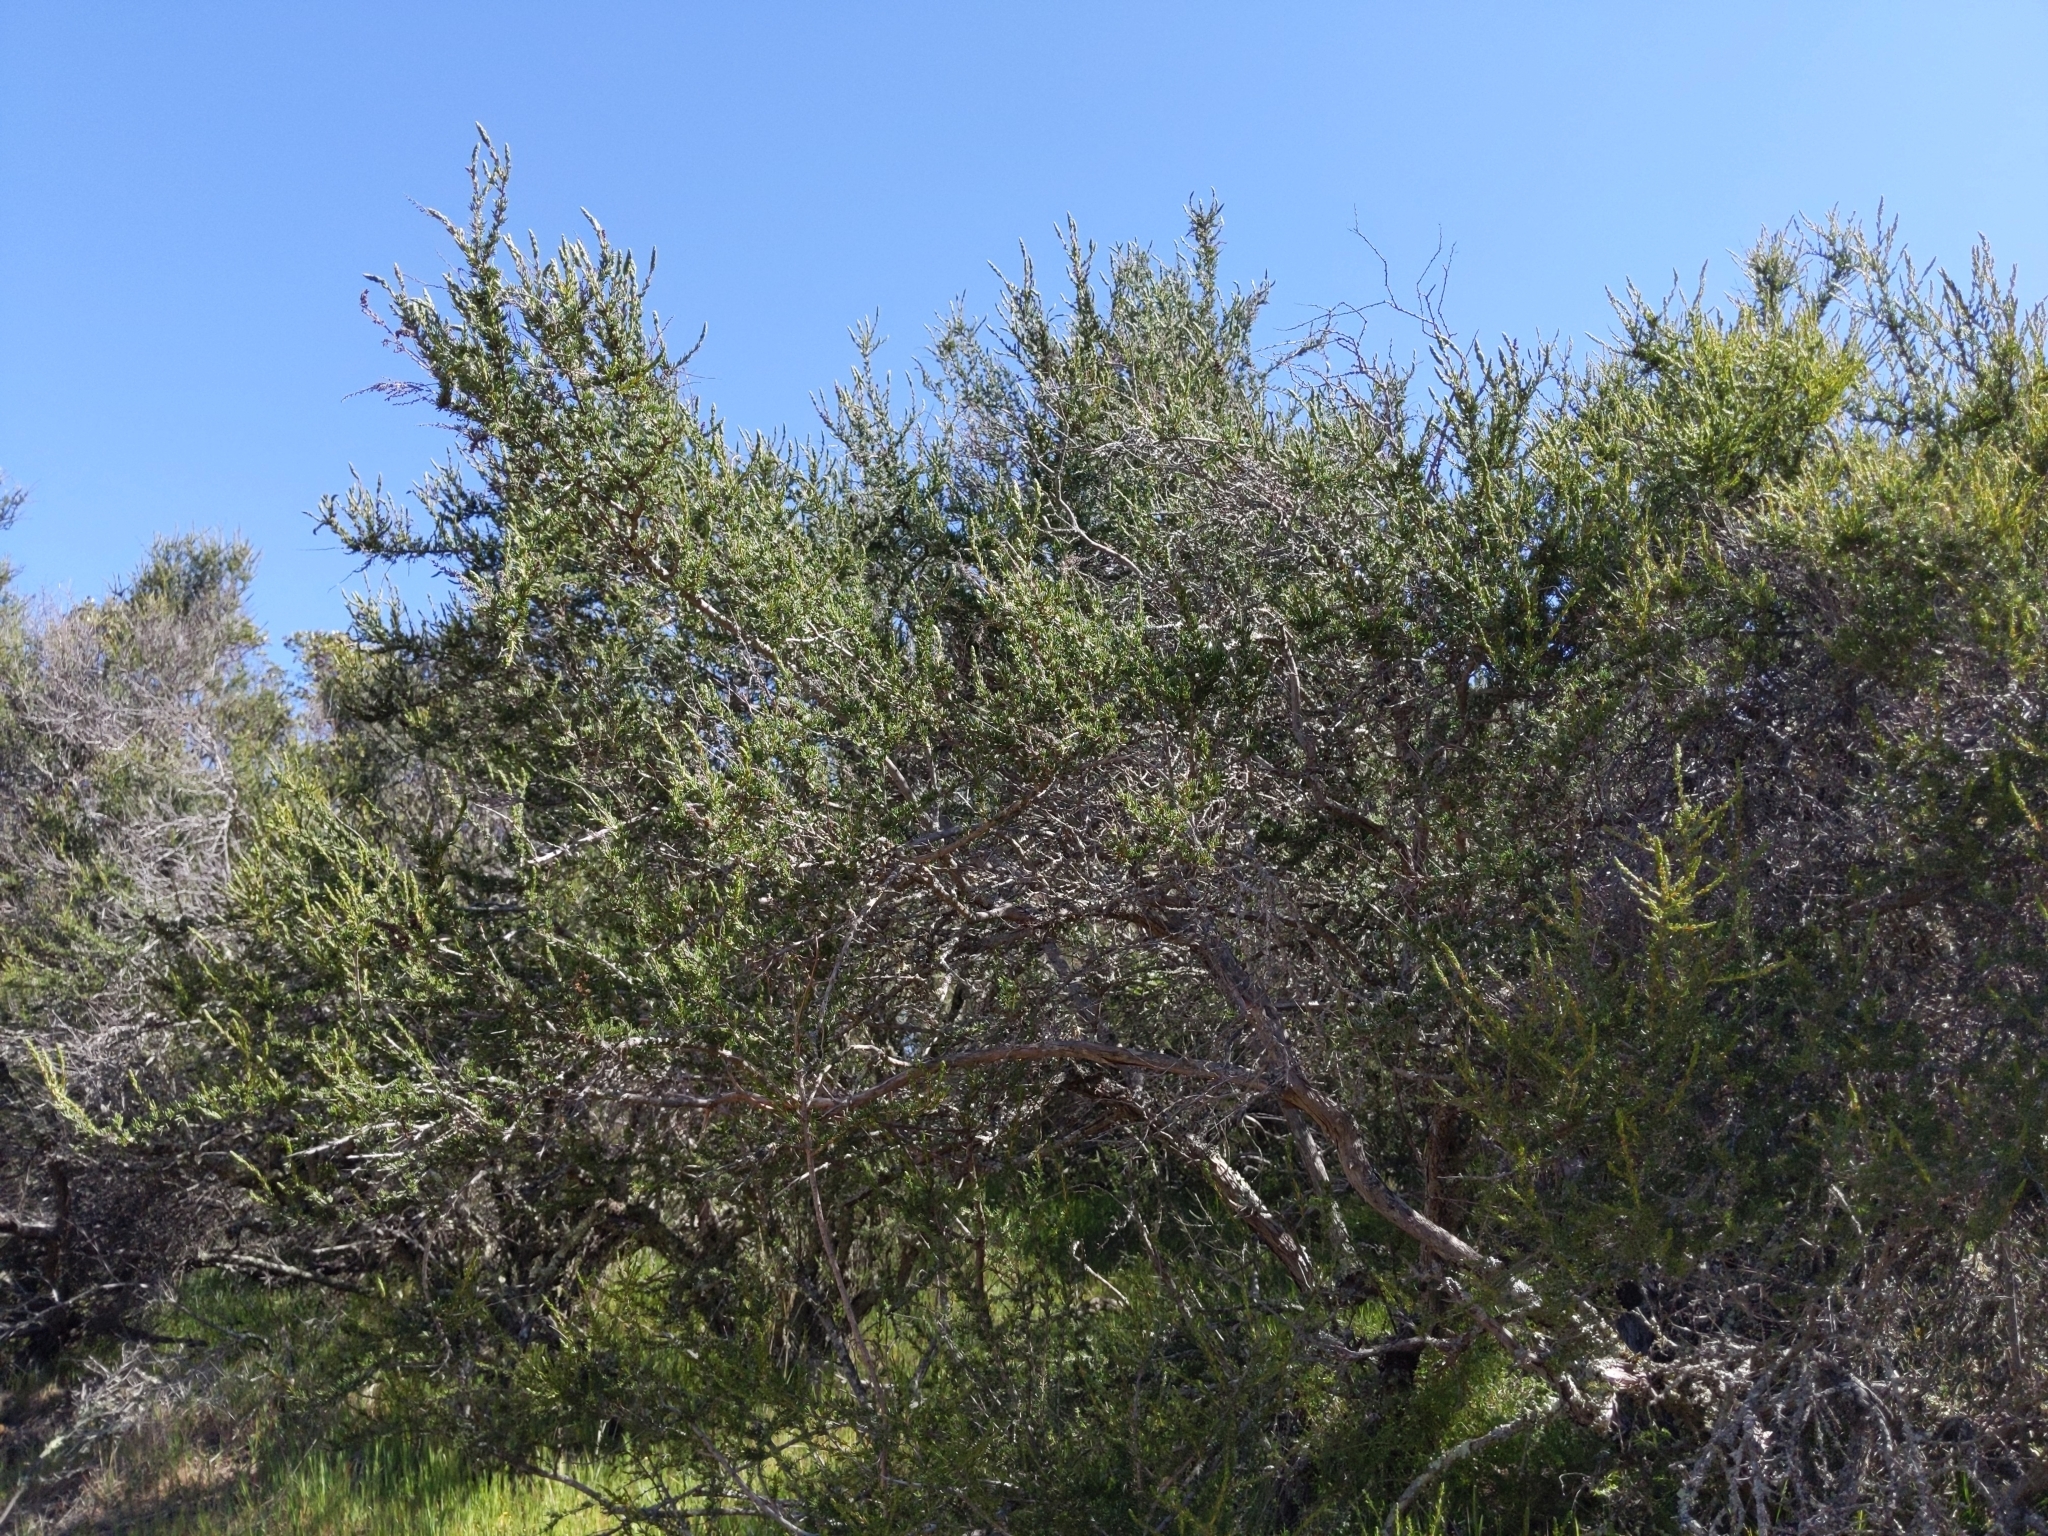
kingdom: Plantae
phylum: Tracheophyta
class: Magnoliopsida
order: Rosales
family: Rosaceae
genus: Adenostoma
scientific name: Adenostoma fasciculatum
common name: Chamise
